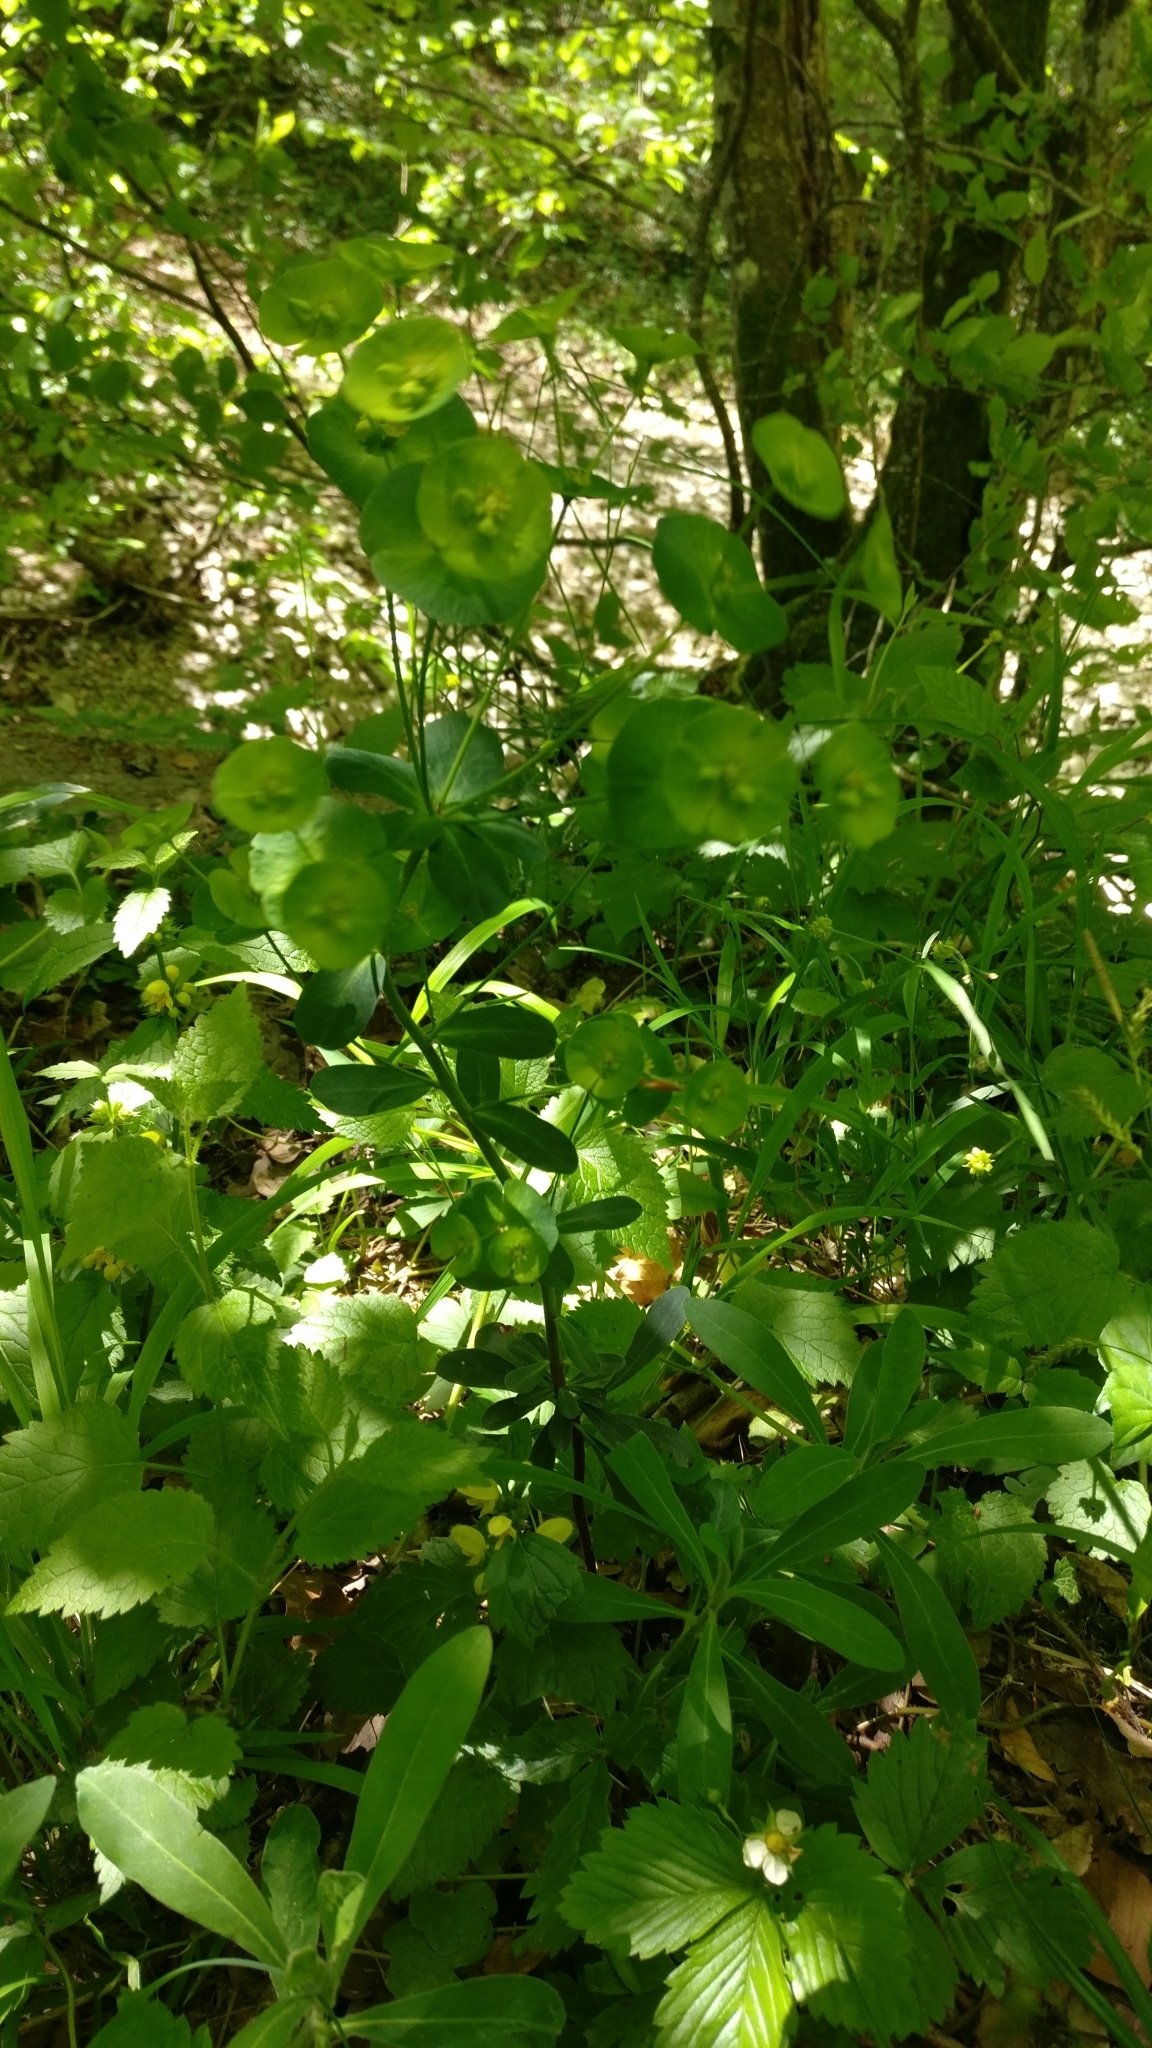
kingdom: Plantae
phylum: Tracheophyta
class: Magnoliopsida
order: Malpighiales
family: Euphorbiaceae
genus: Euphorbia
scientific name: Euphorbia amygdaloides
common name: Wood spurge
